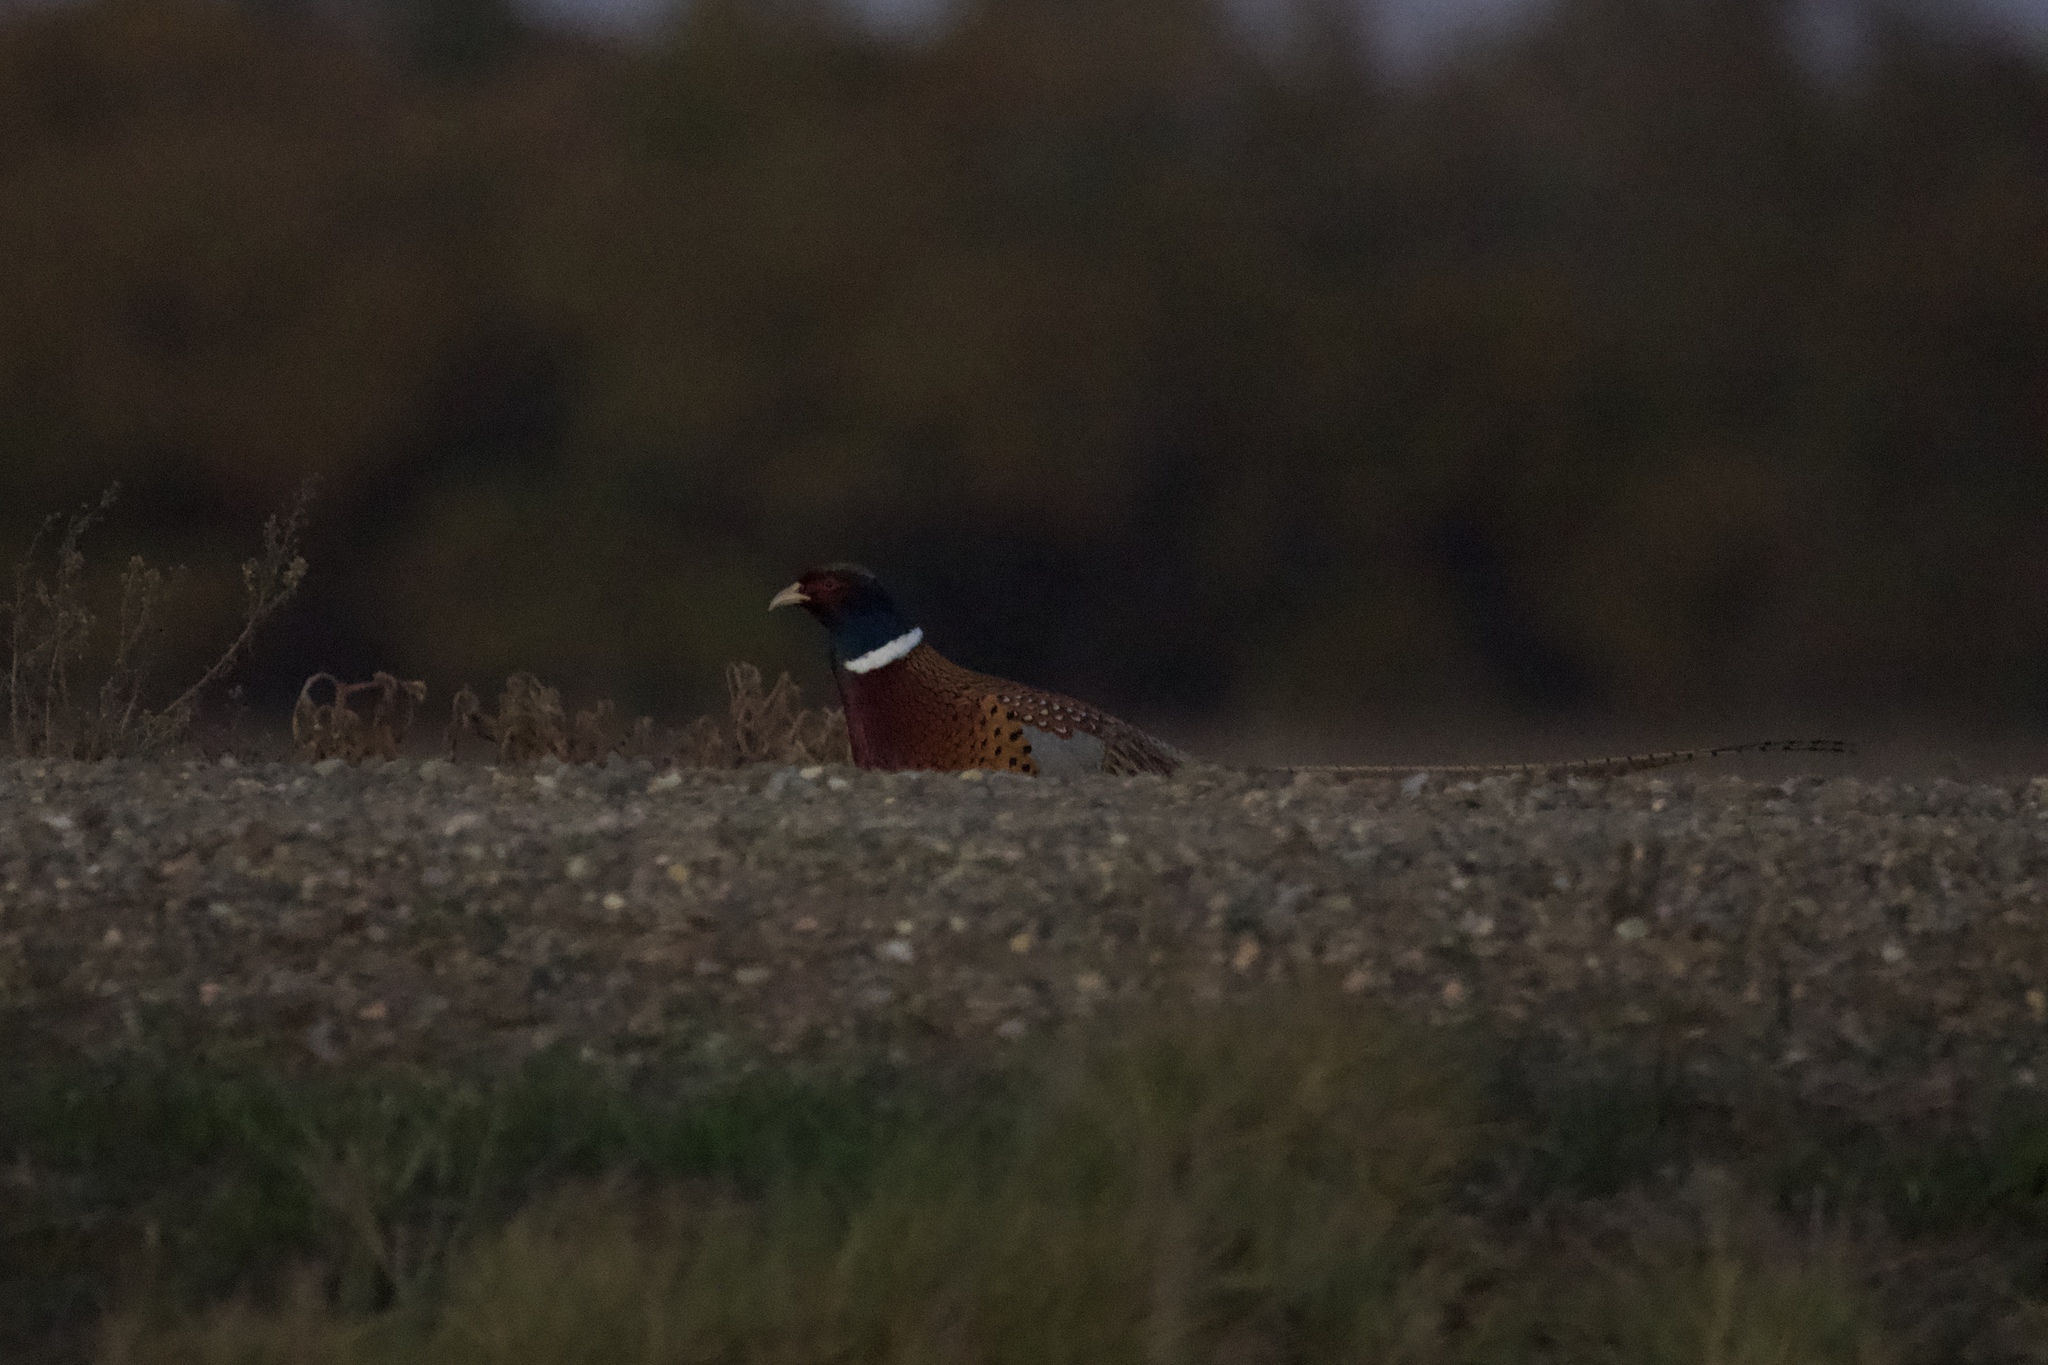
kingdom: Animalia
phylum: Chordata
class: Aves
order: Galliformes
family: Phasianidae
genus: Phasianus
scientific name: Phasianus colchicus
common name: Common pheasant
